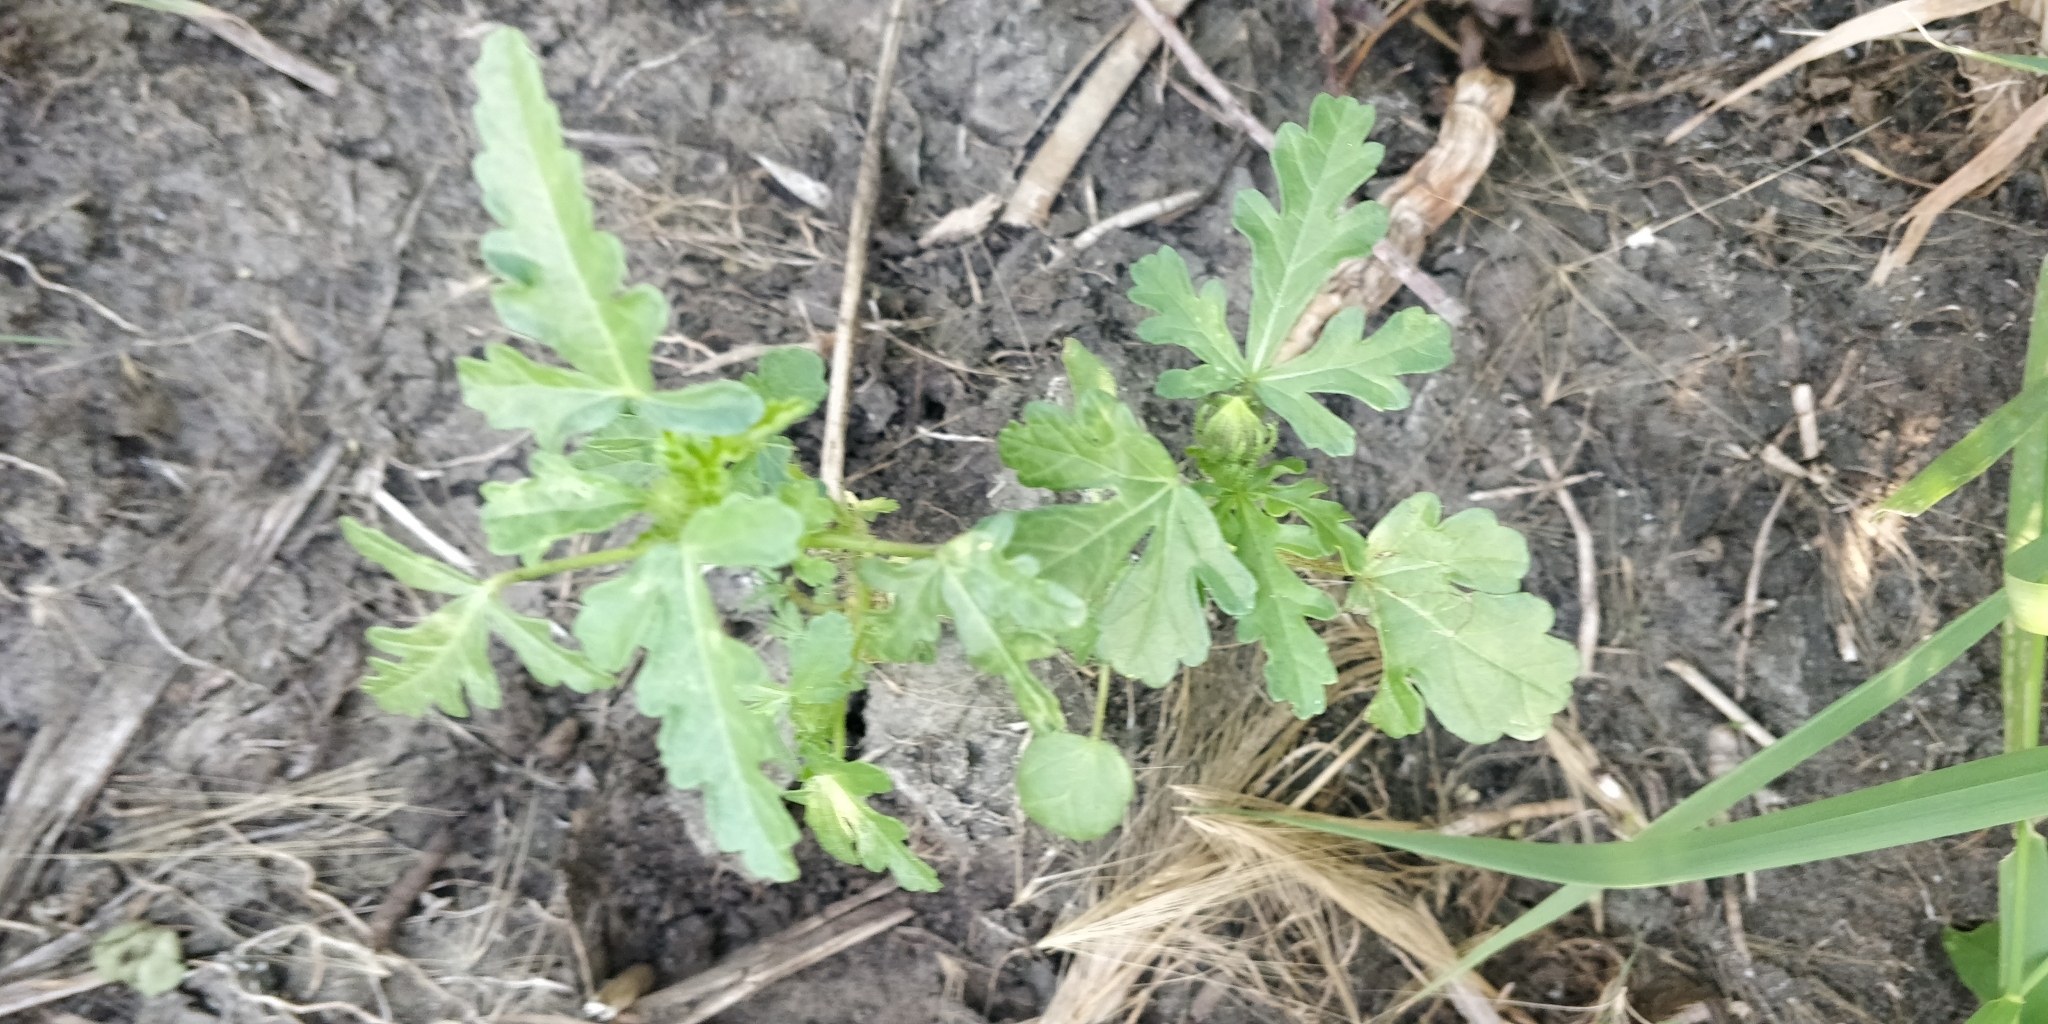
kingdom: Plantae
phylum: Tracheophyta
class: Magnoliopsida
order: Malvales
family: Malvaceae
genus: Hibiscus
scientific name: Hibiscus trionum
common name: Bladder ketmia
